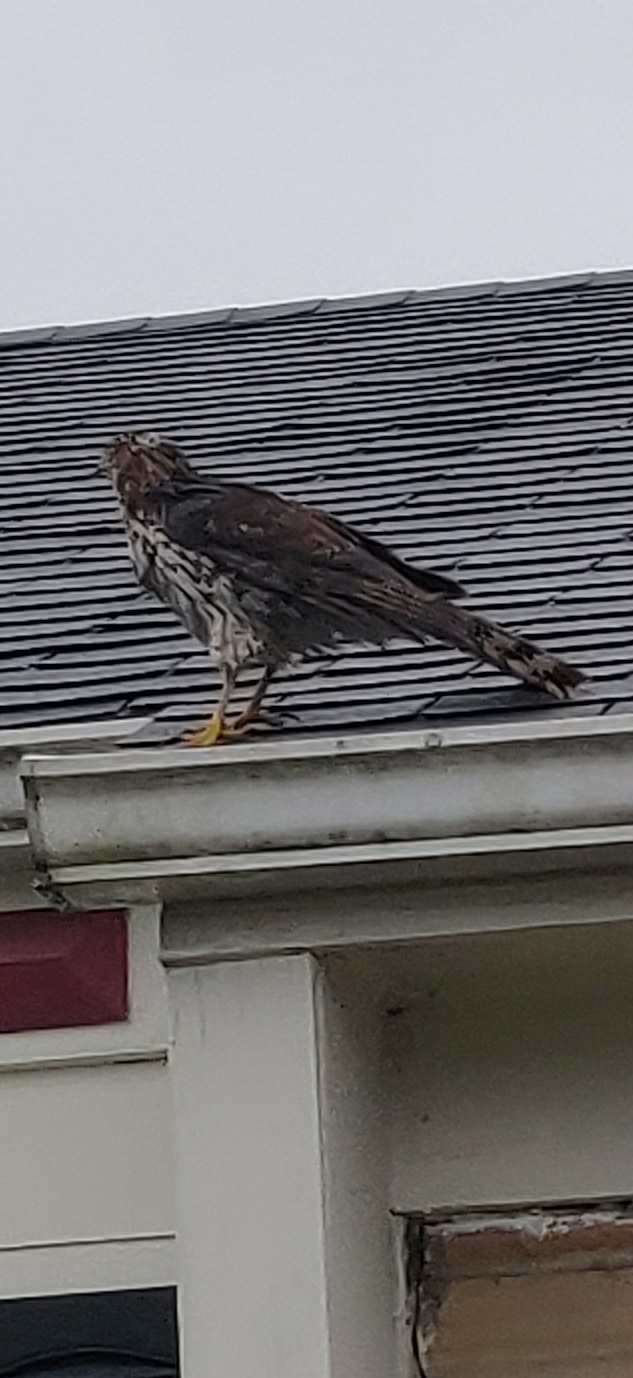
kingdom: Animalia
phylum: Chordata
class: Aves
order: Accipitriformes
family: Accipitridae
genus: Accipiter
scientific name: Accipiter cooperii
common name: Cooper's hawk
